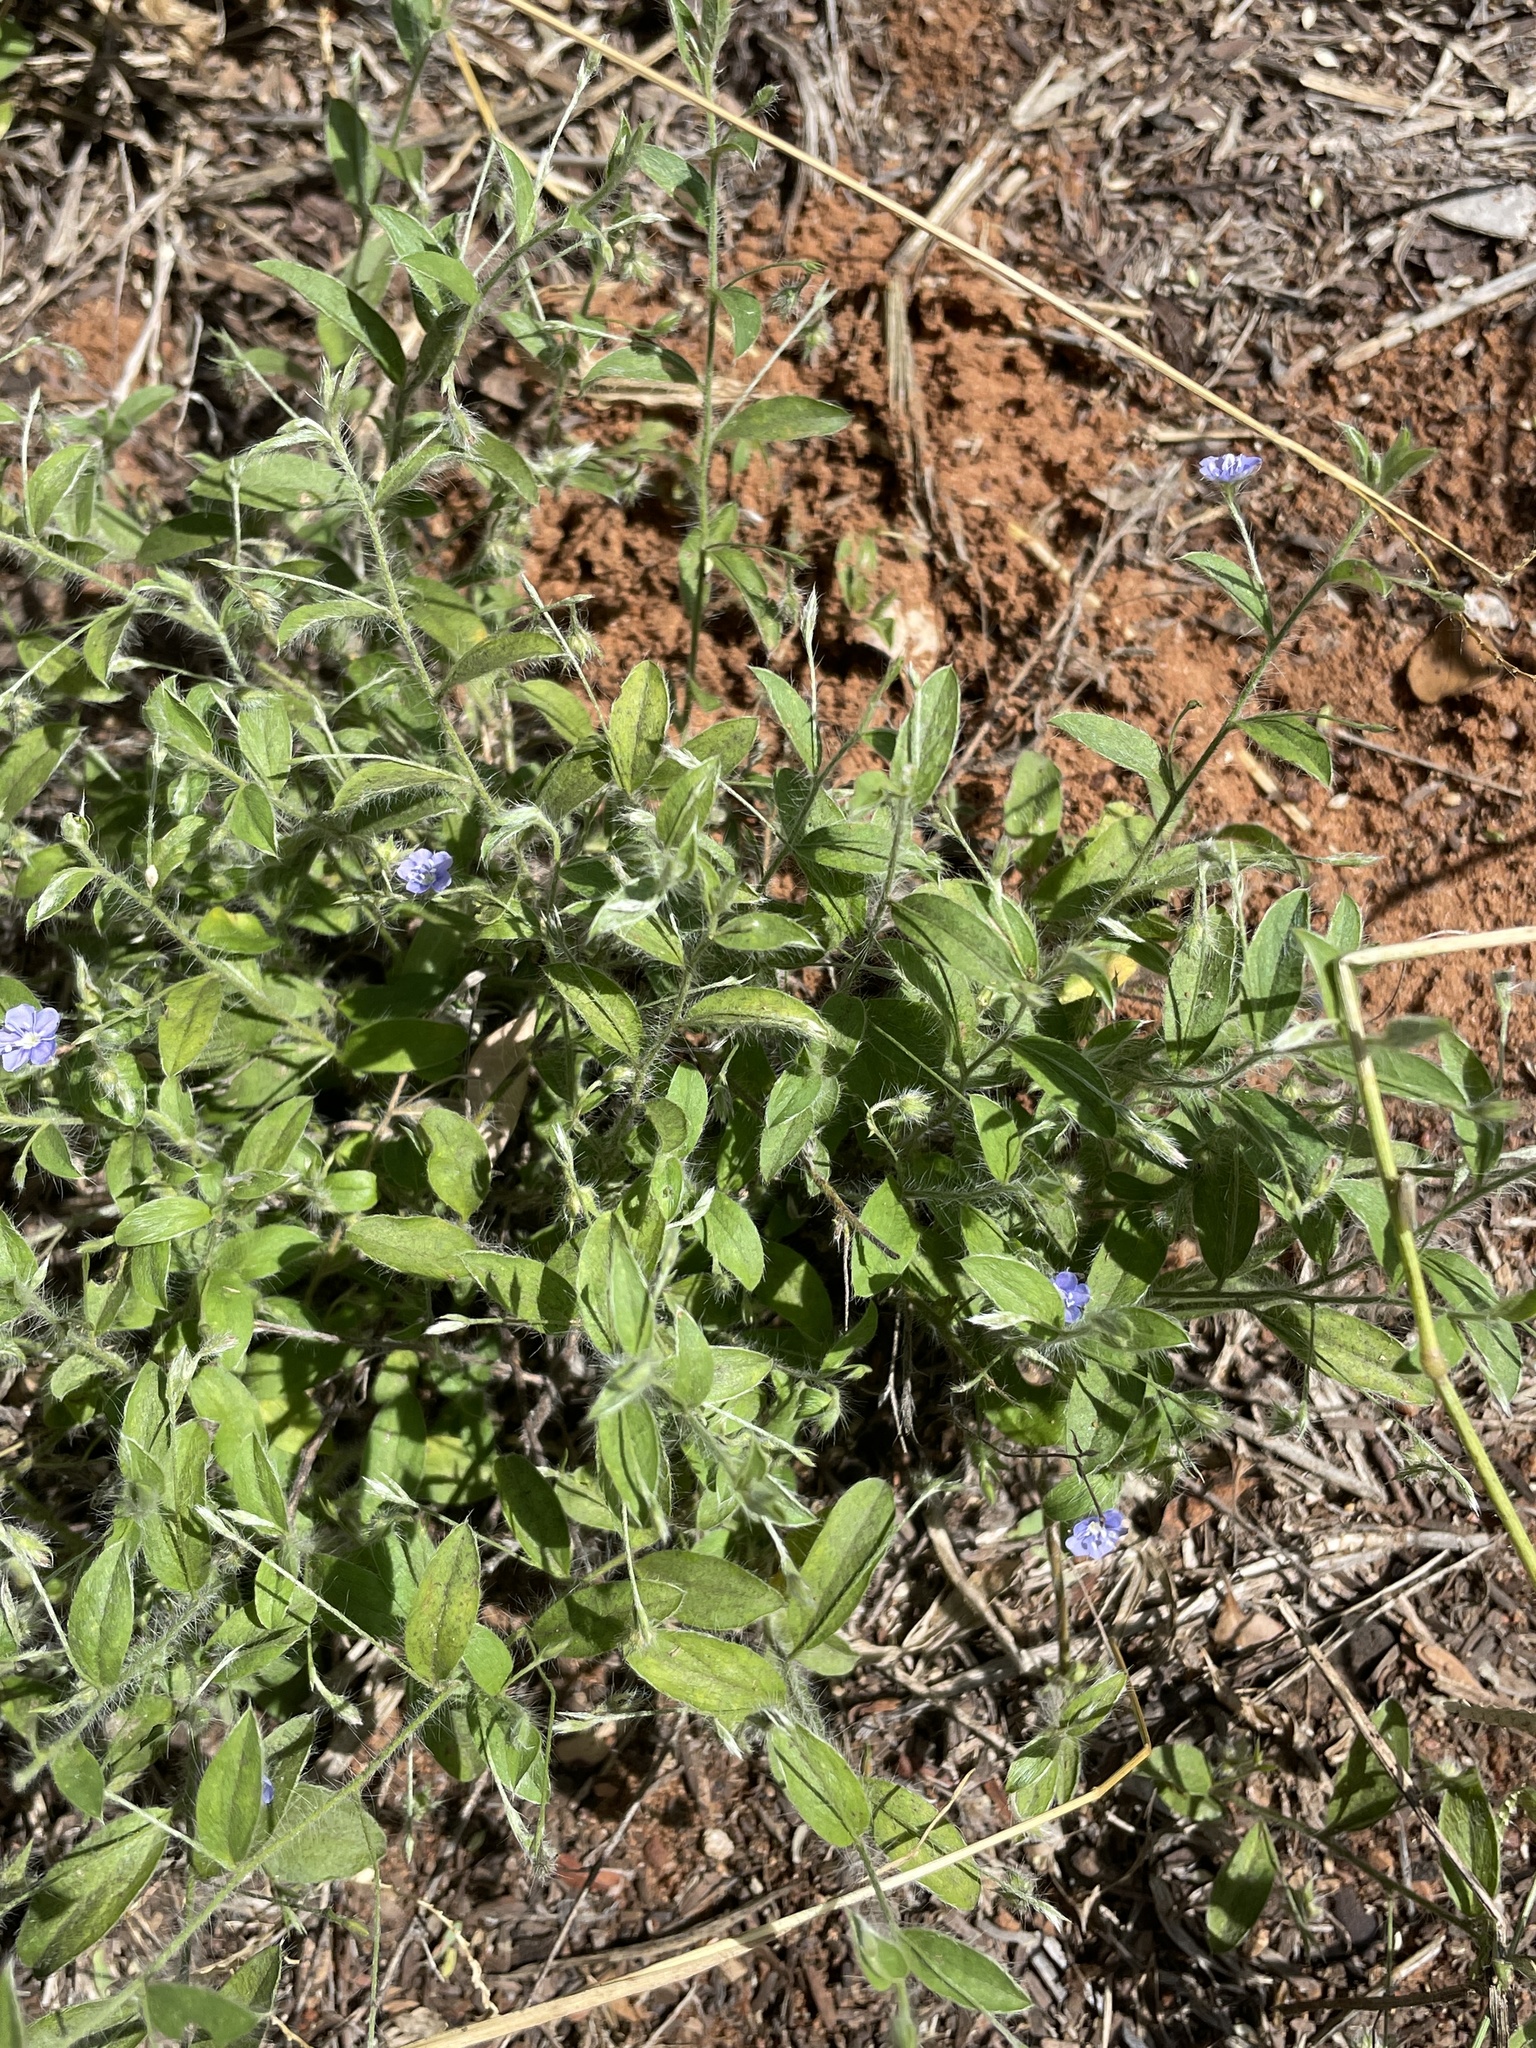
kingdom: Plantae
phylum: Tracheophyta
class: Magnoliopsida
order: Solanales
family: Convolvulaceae
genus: Evolvulus
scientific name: Evolvulus alsinoides
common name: Slender dwarf morning-glory
